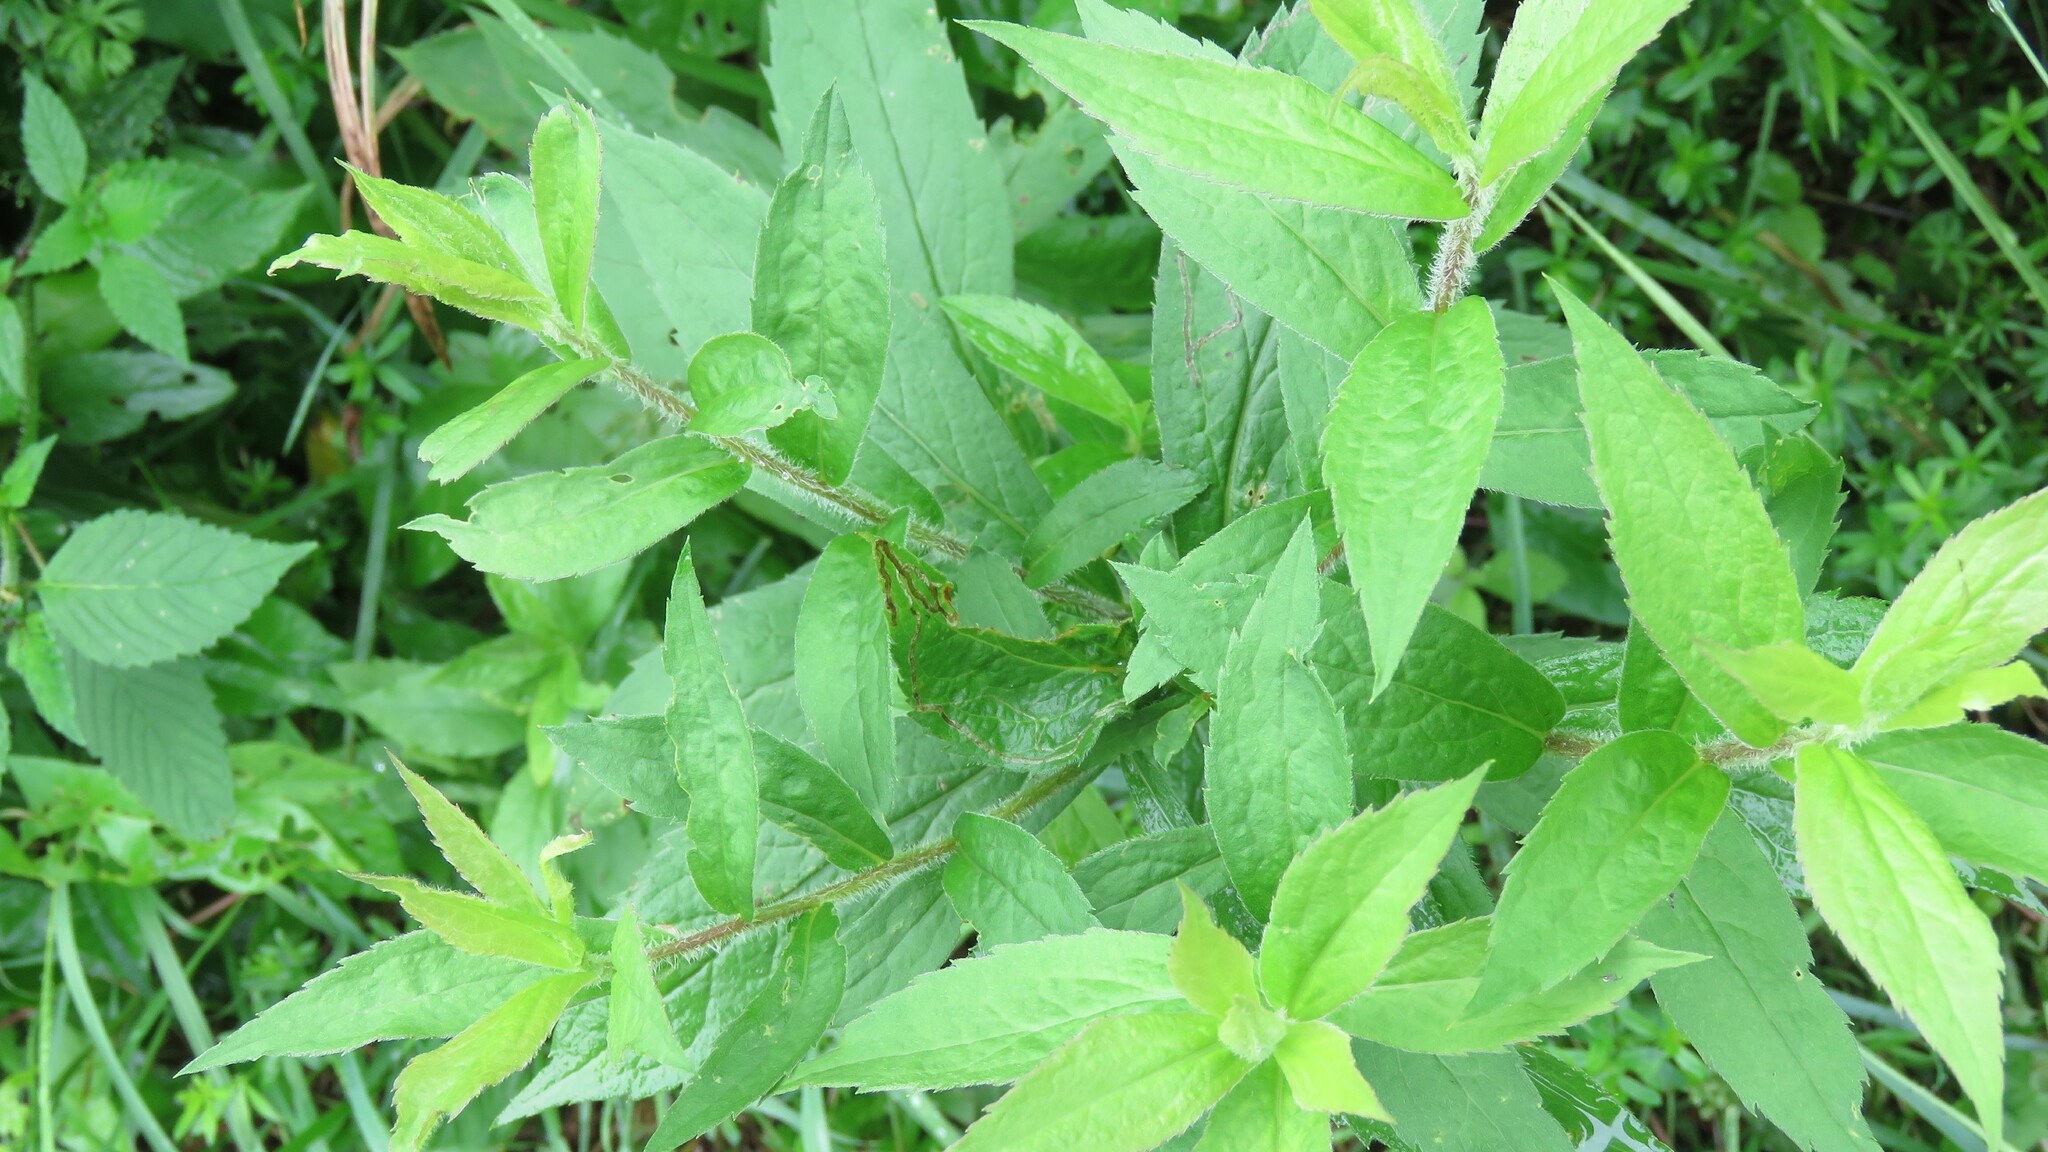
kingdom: Plantae
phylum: Tracheophyta
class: Magnoliopsida
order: Asterales
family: Asteraceae
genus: Solidago
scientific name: Solidago rugosa
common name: Rough-stemmed goldenrod
